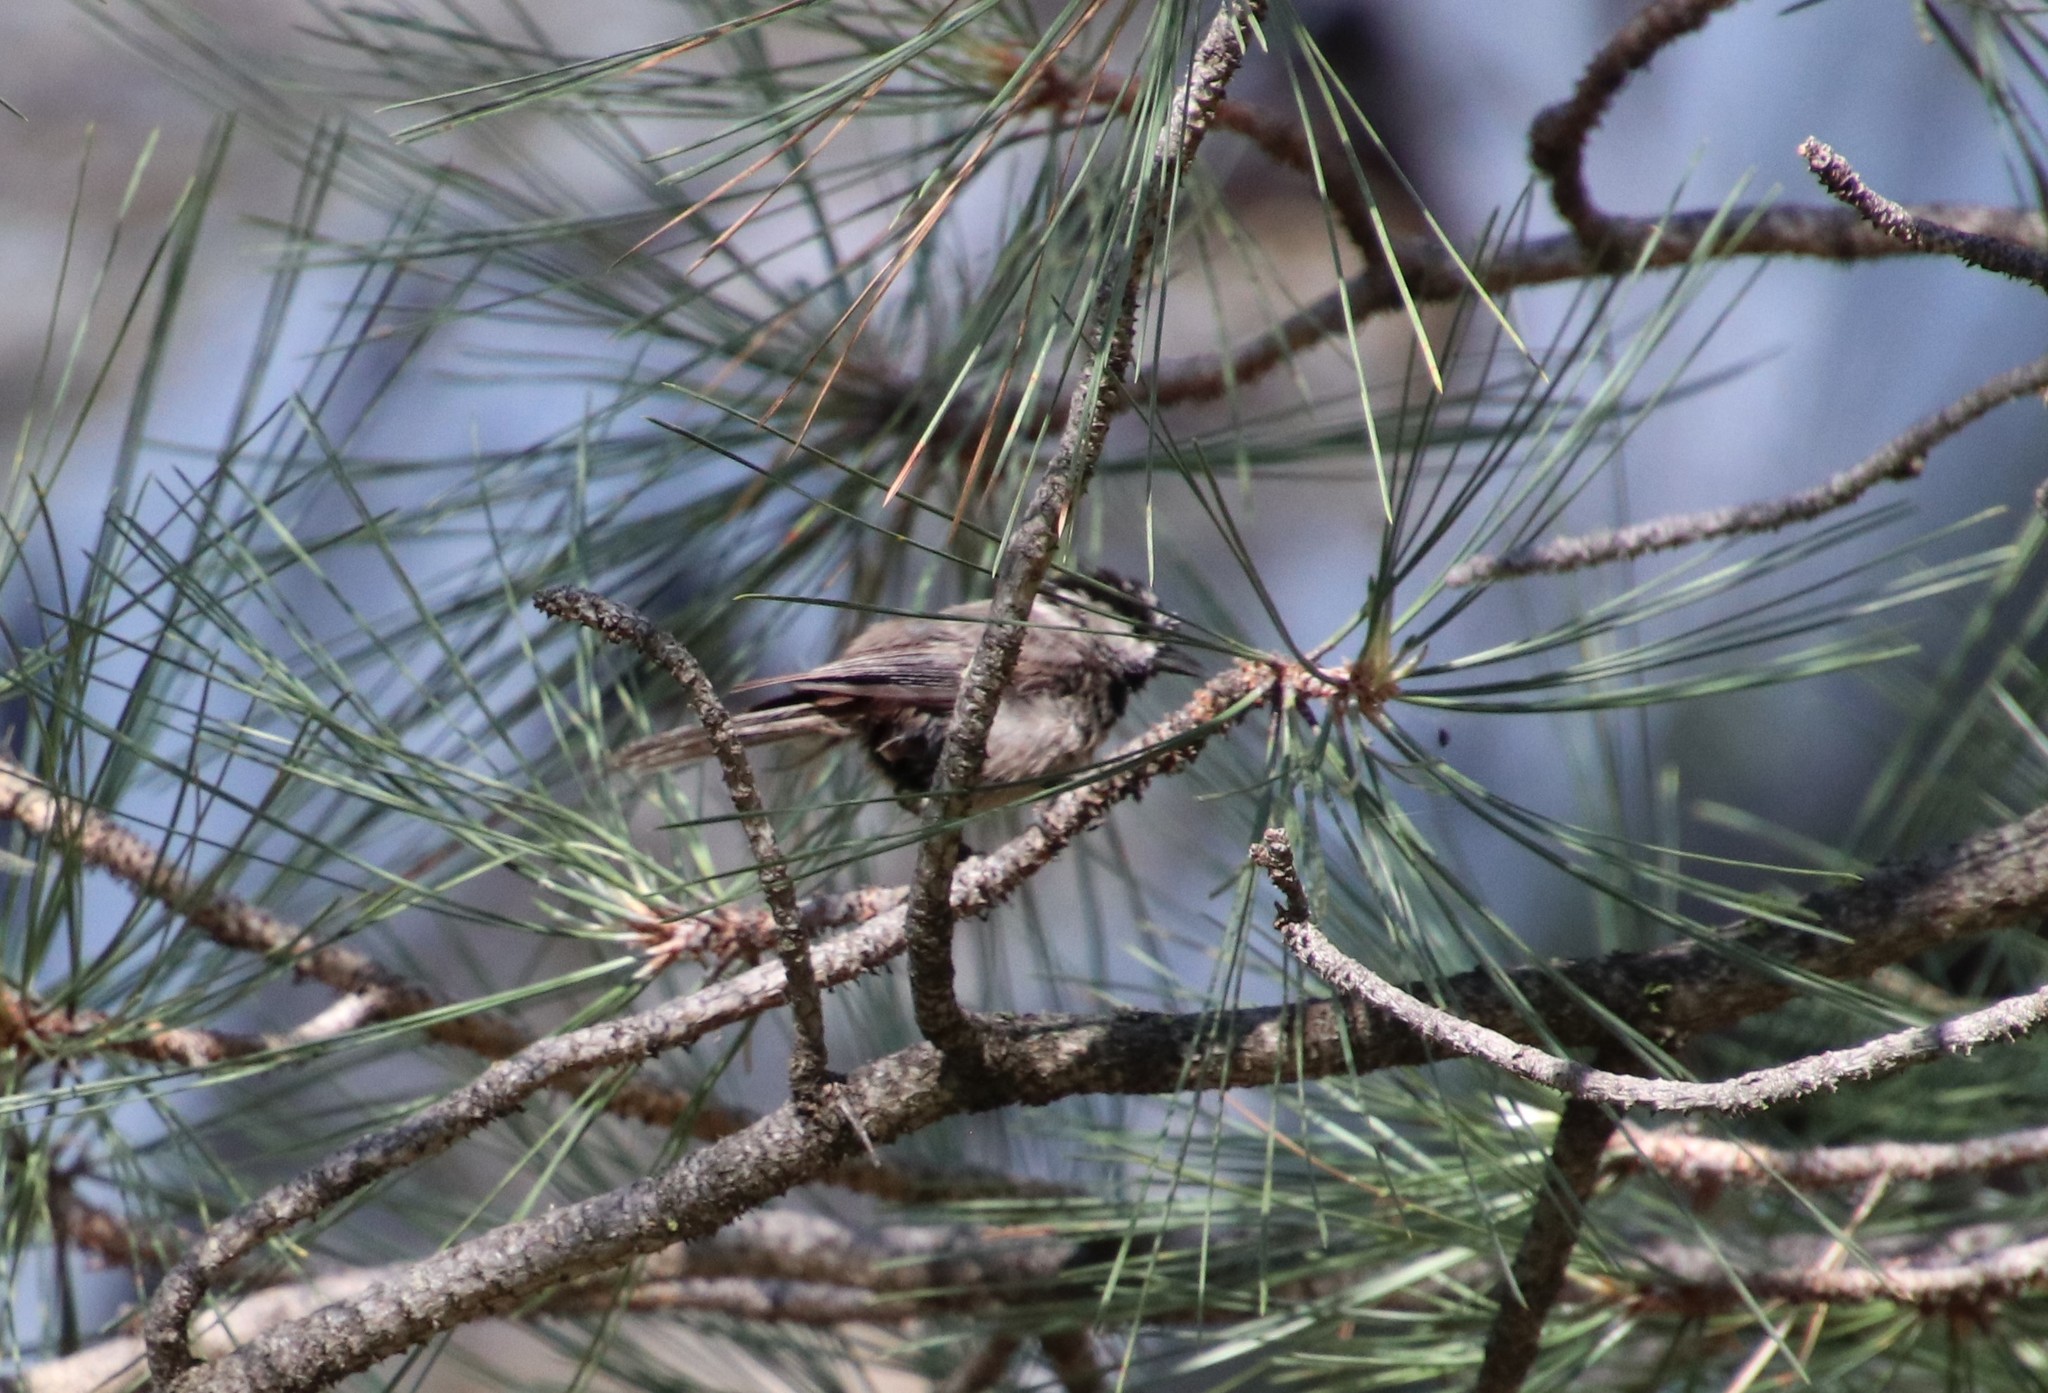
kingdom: Animalia
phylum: Chordata
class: Aves
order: Passeriformes
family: Paridae
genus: Poecile
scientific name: Poecile gambeli
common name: Mountain chickadee
